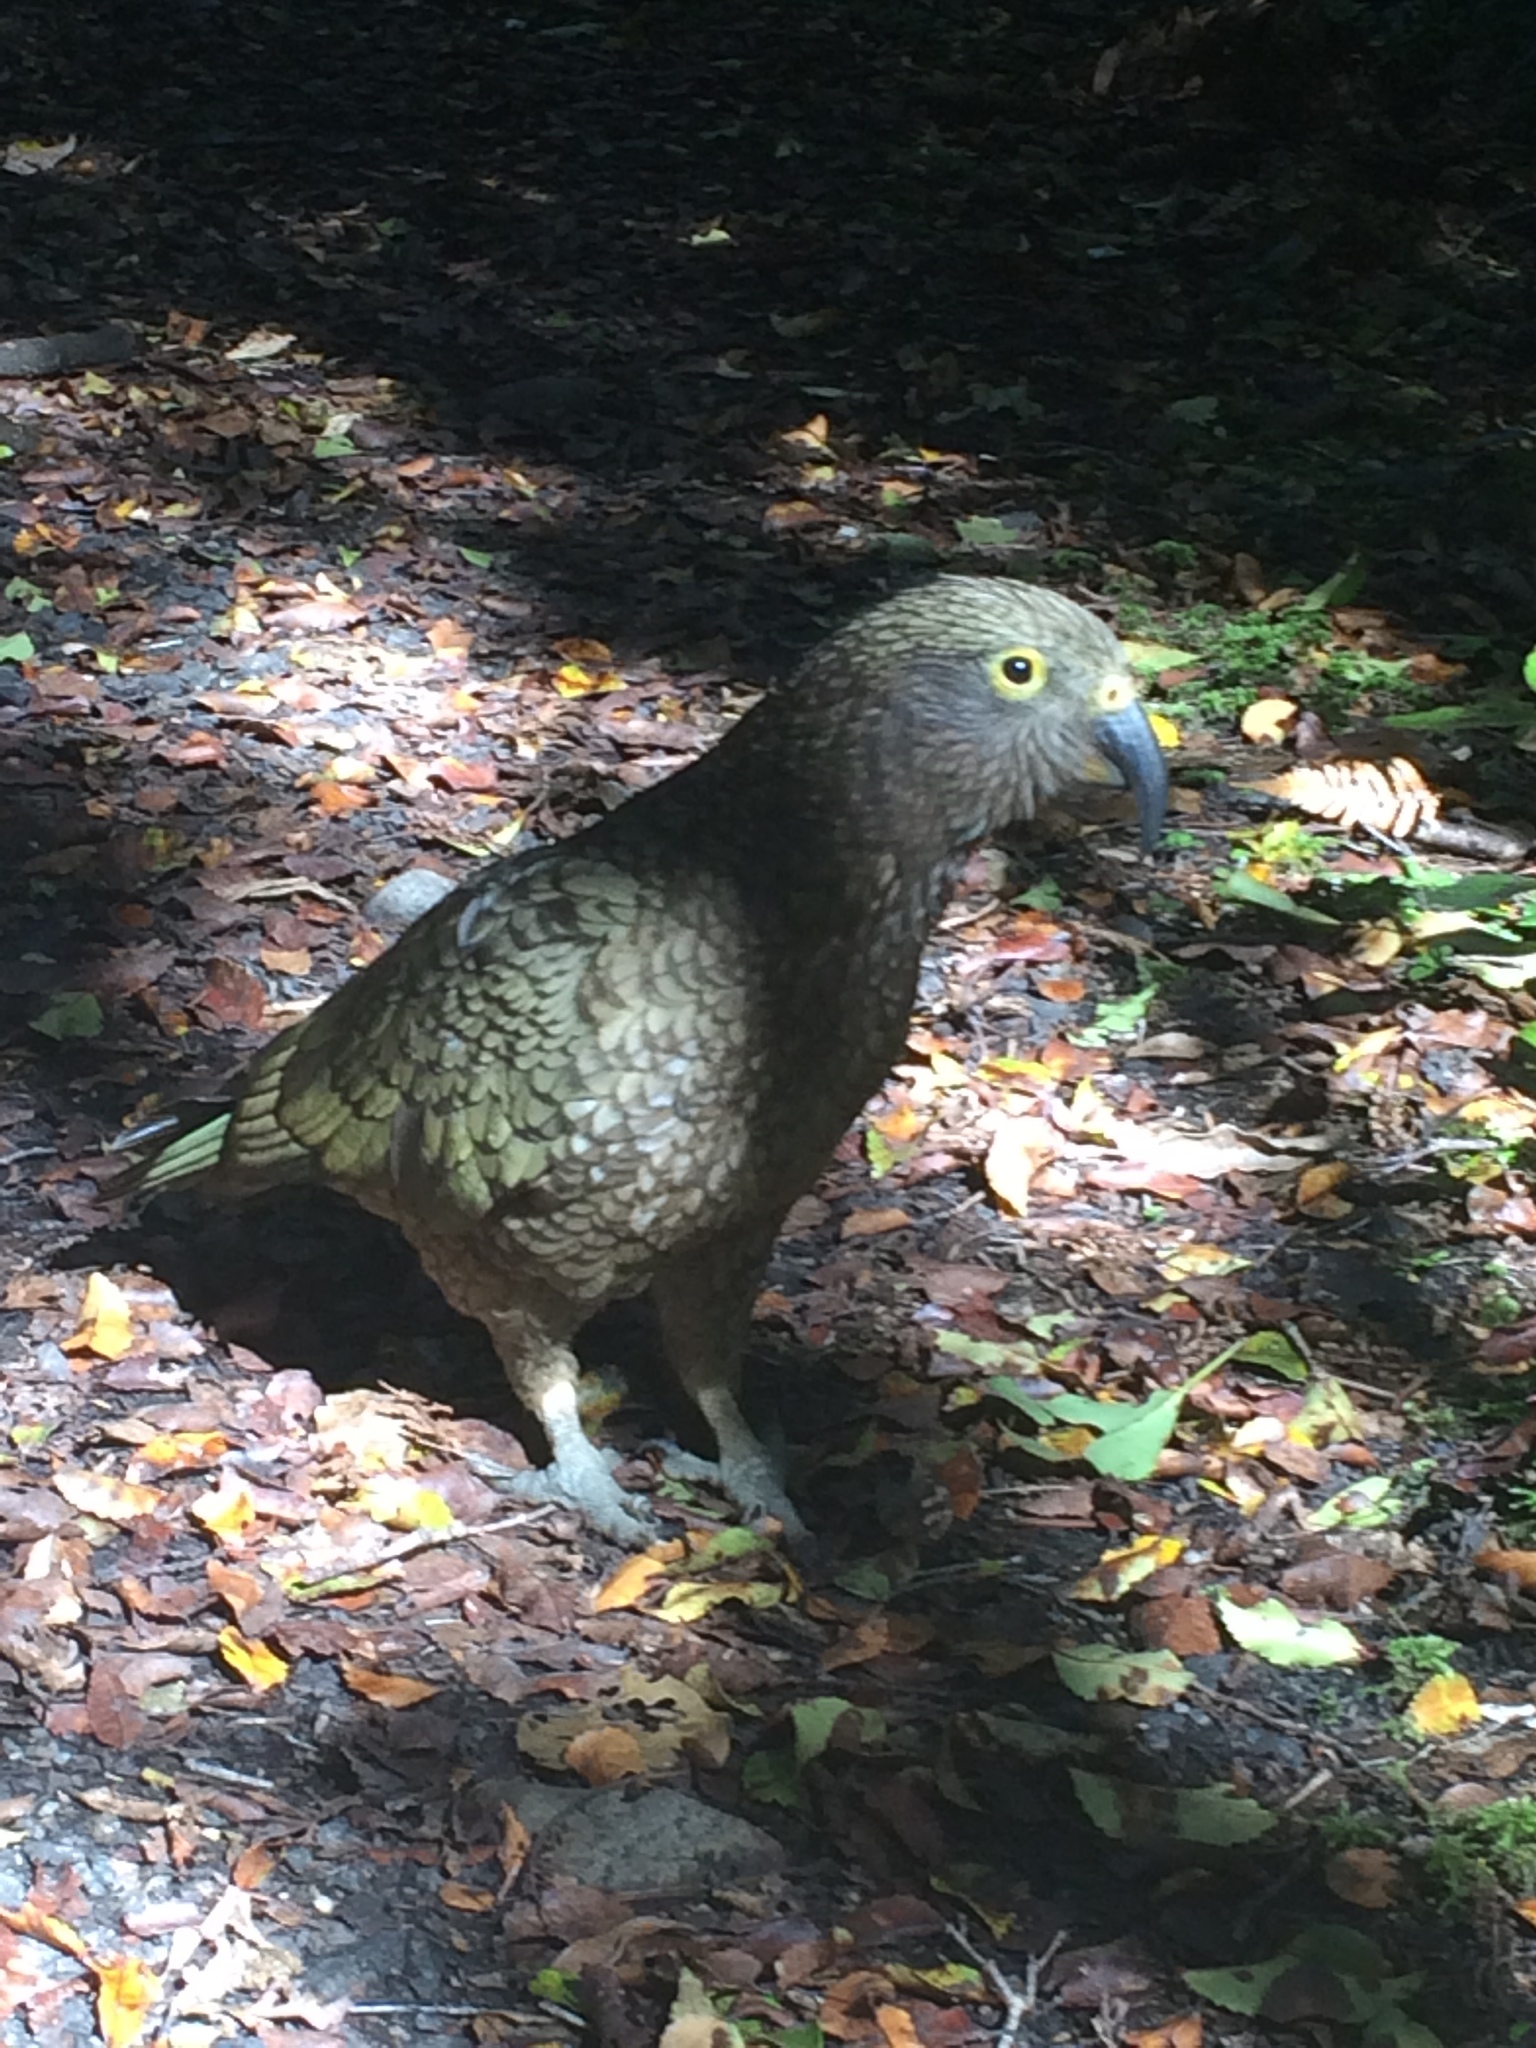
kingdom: Animalia
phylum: Chordata
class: Aves
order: Psittaciformes
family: Psittacidae
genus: Nestor
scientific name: Nestor notabilis
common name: Kea
